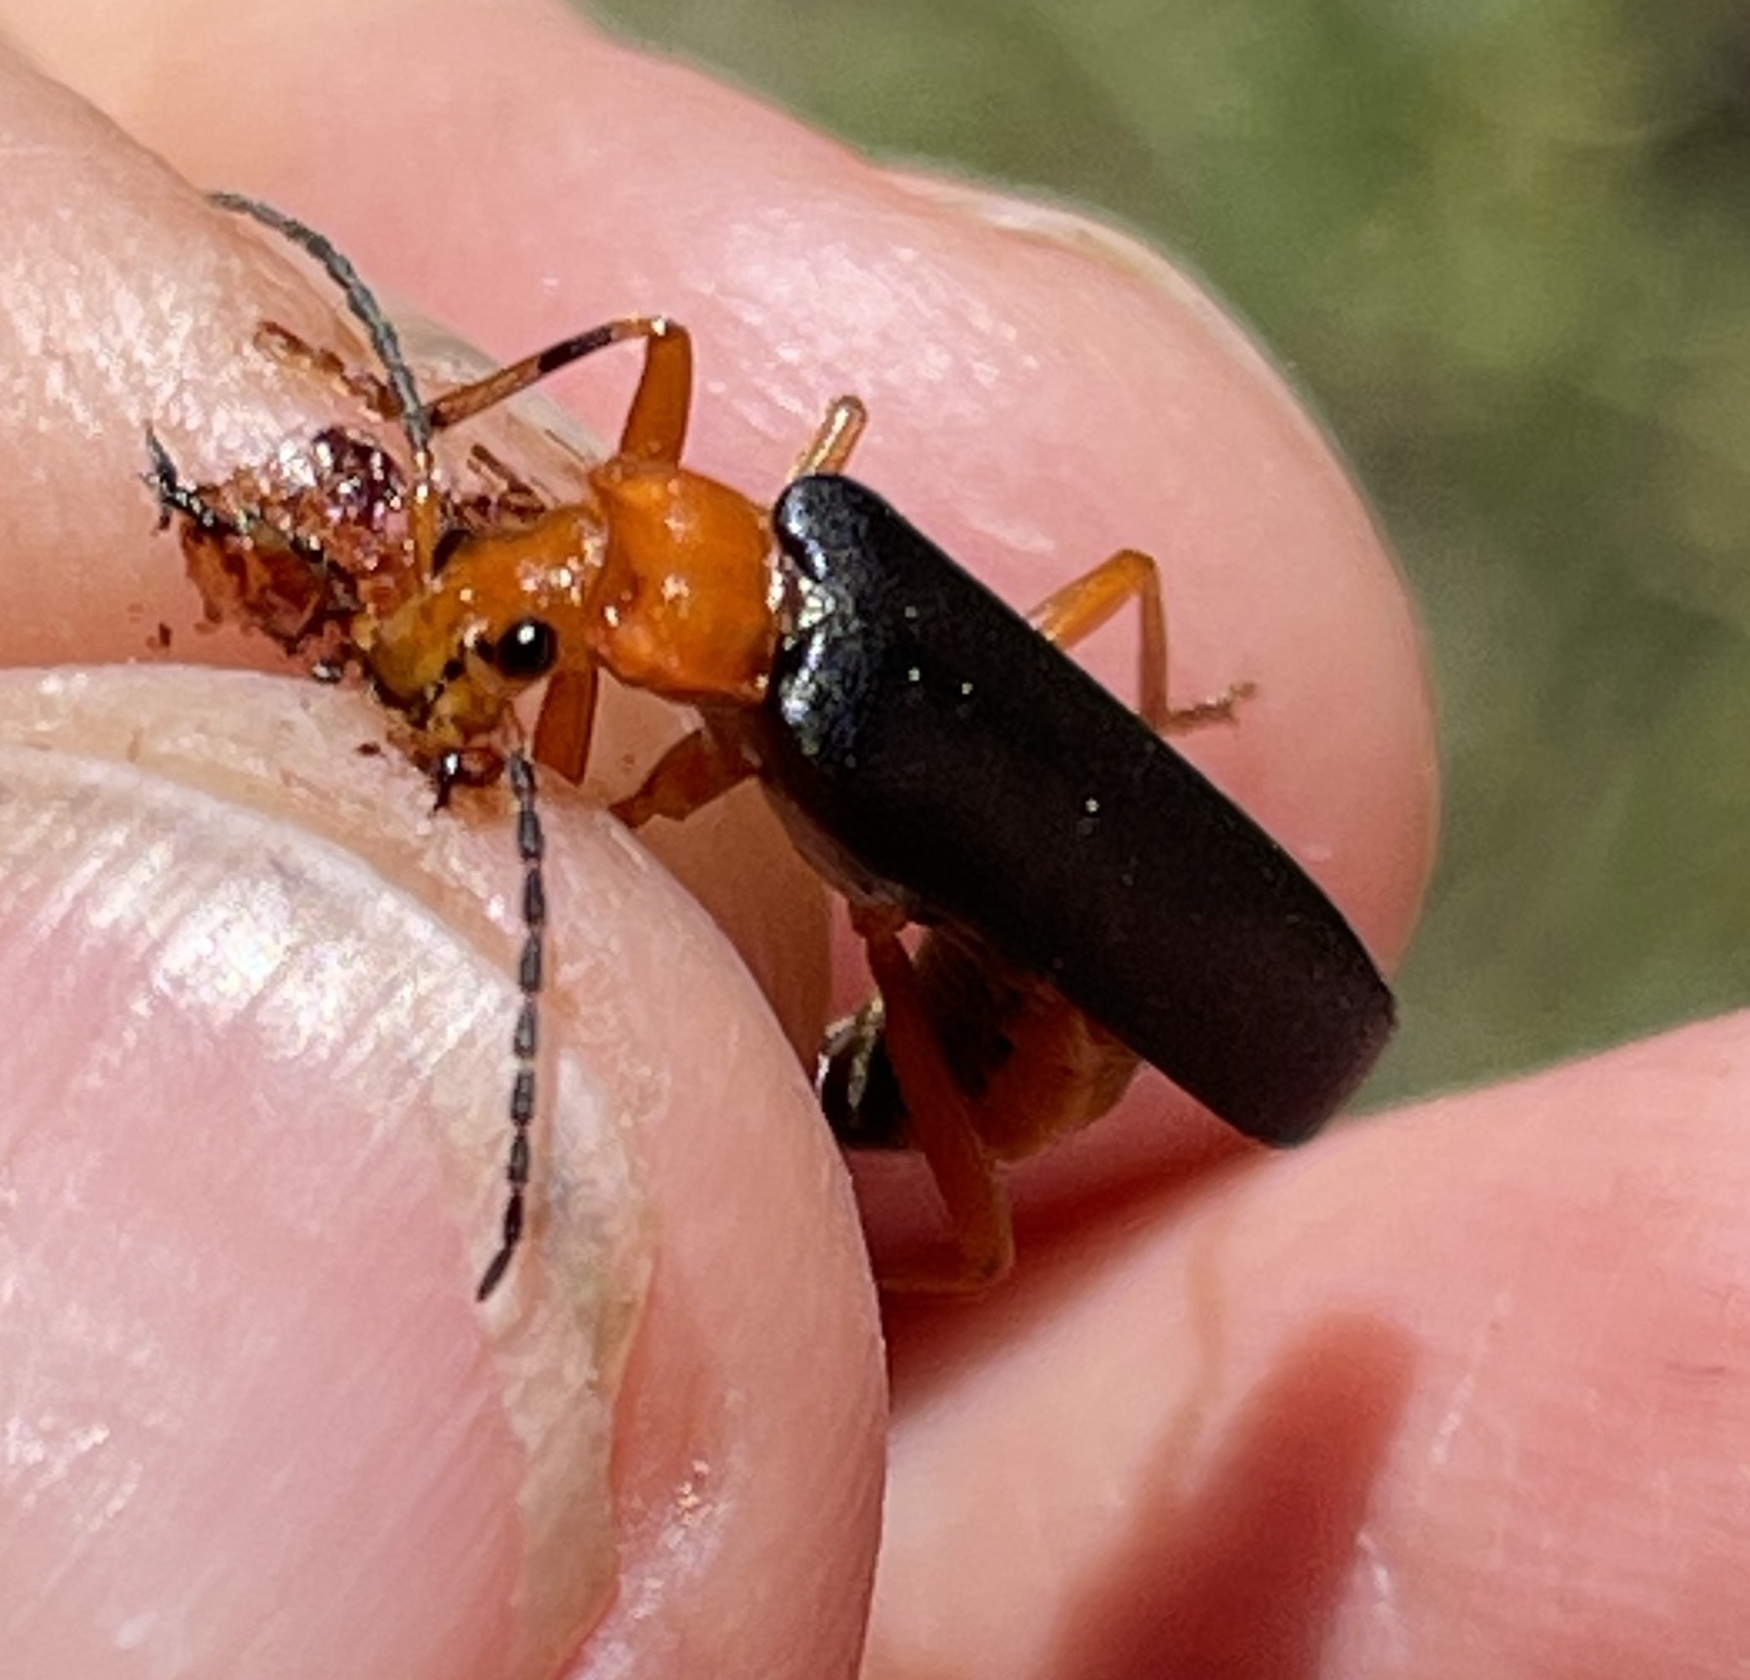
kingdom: Animalia
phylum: Arthropoda
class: Insecta
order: Coleoptera
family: Cantharidae
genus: Podabrus
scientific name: Podabrus pruinosus
